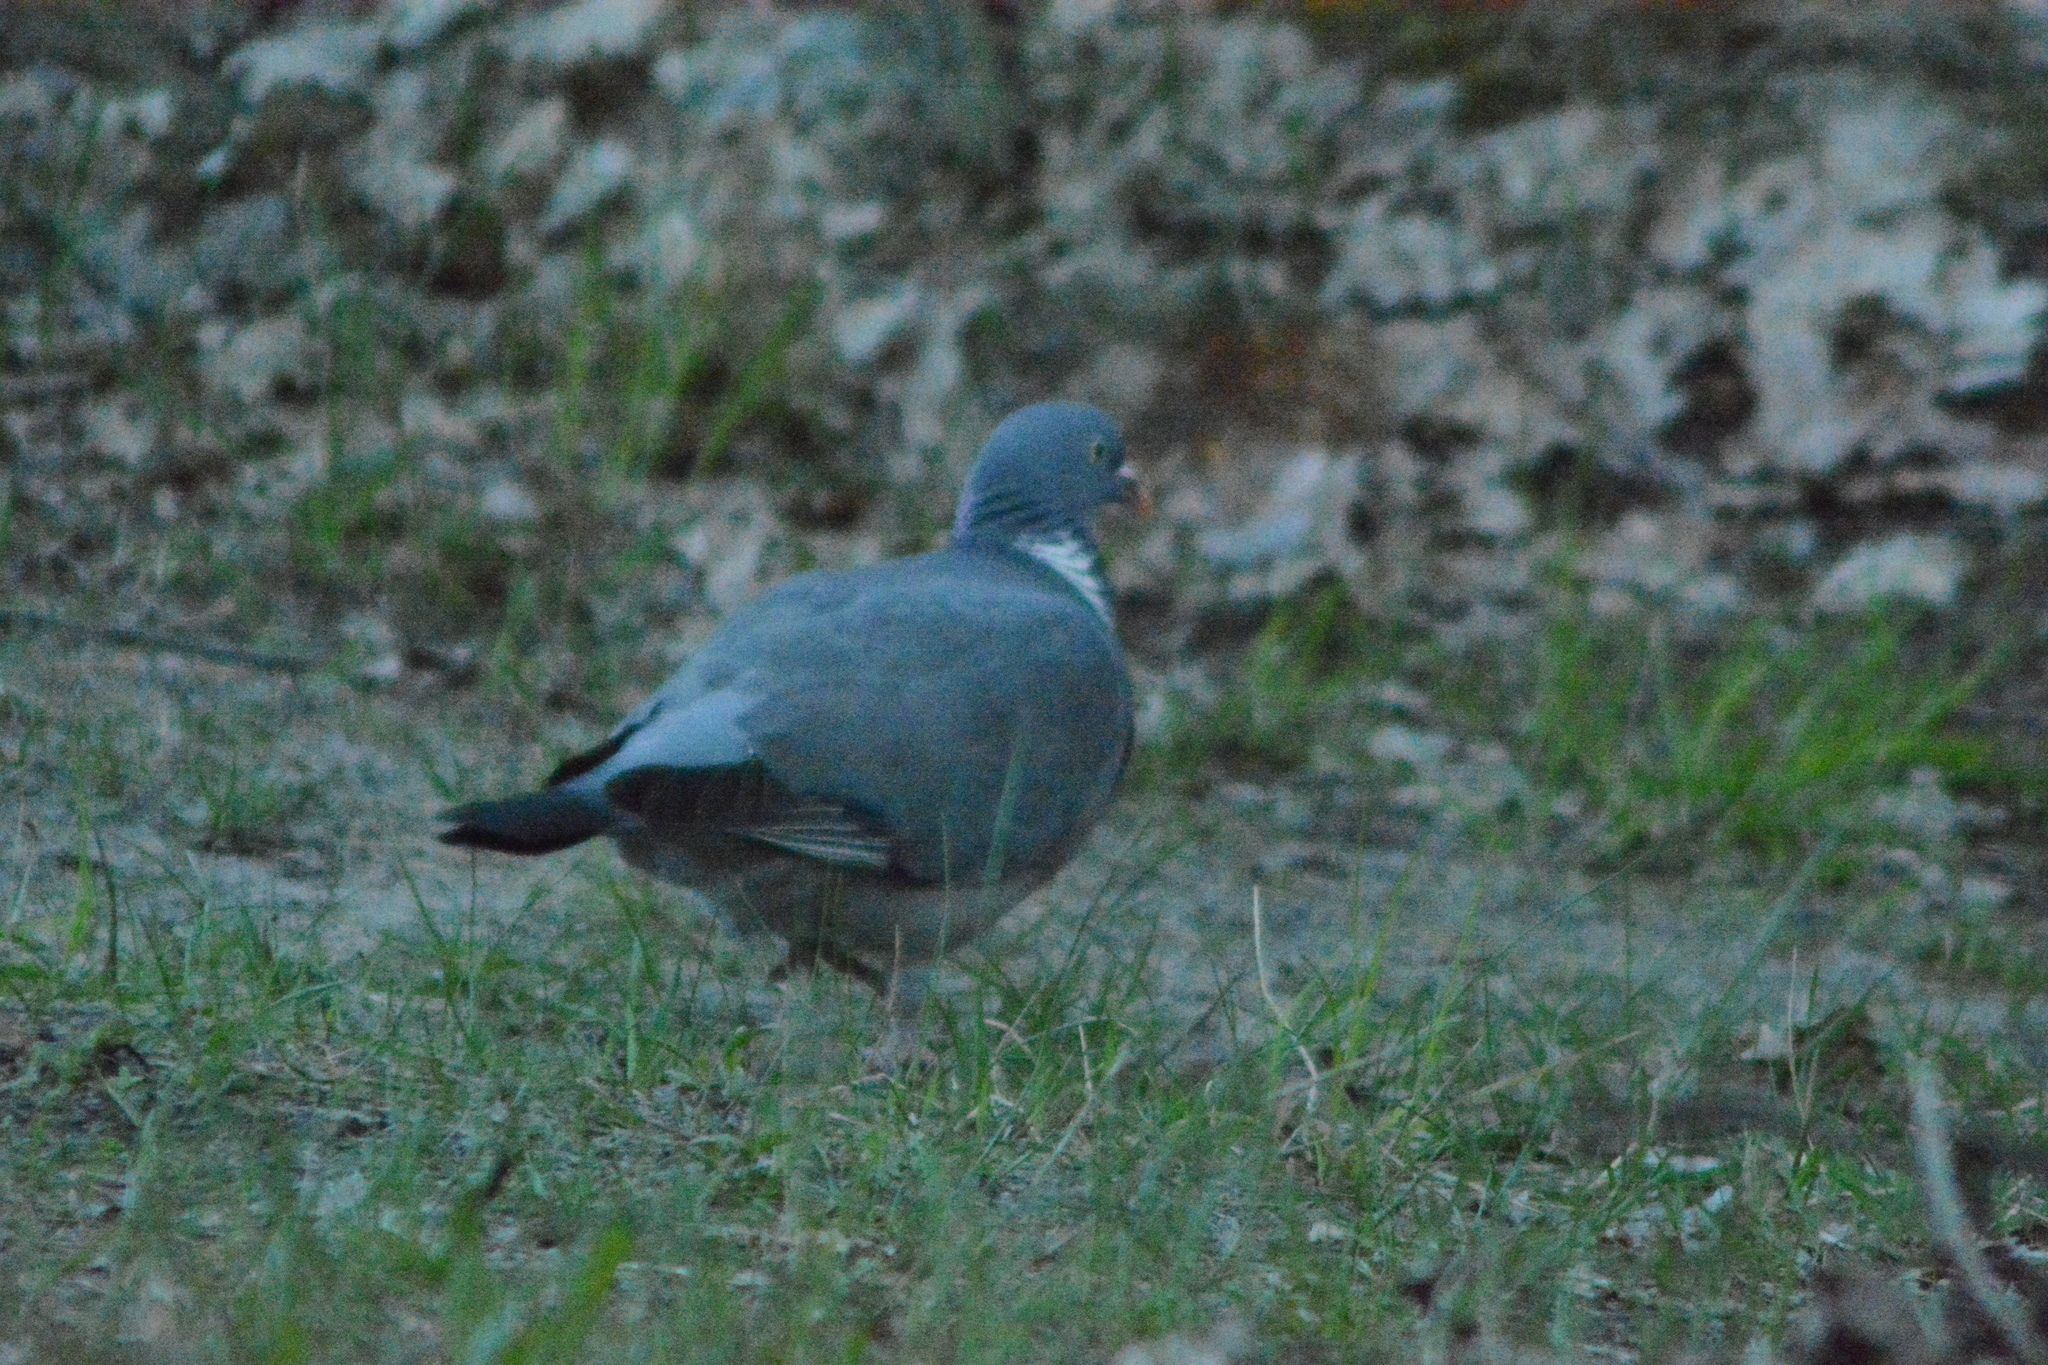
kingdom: Animalia
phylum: Chordata
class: Aves
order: Columbiformes
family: Columbidae
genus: Columba
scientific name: Columba palumbus
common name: Common wood pigeon
